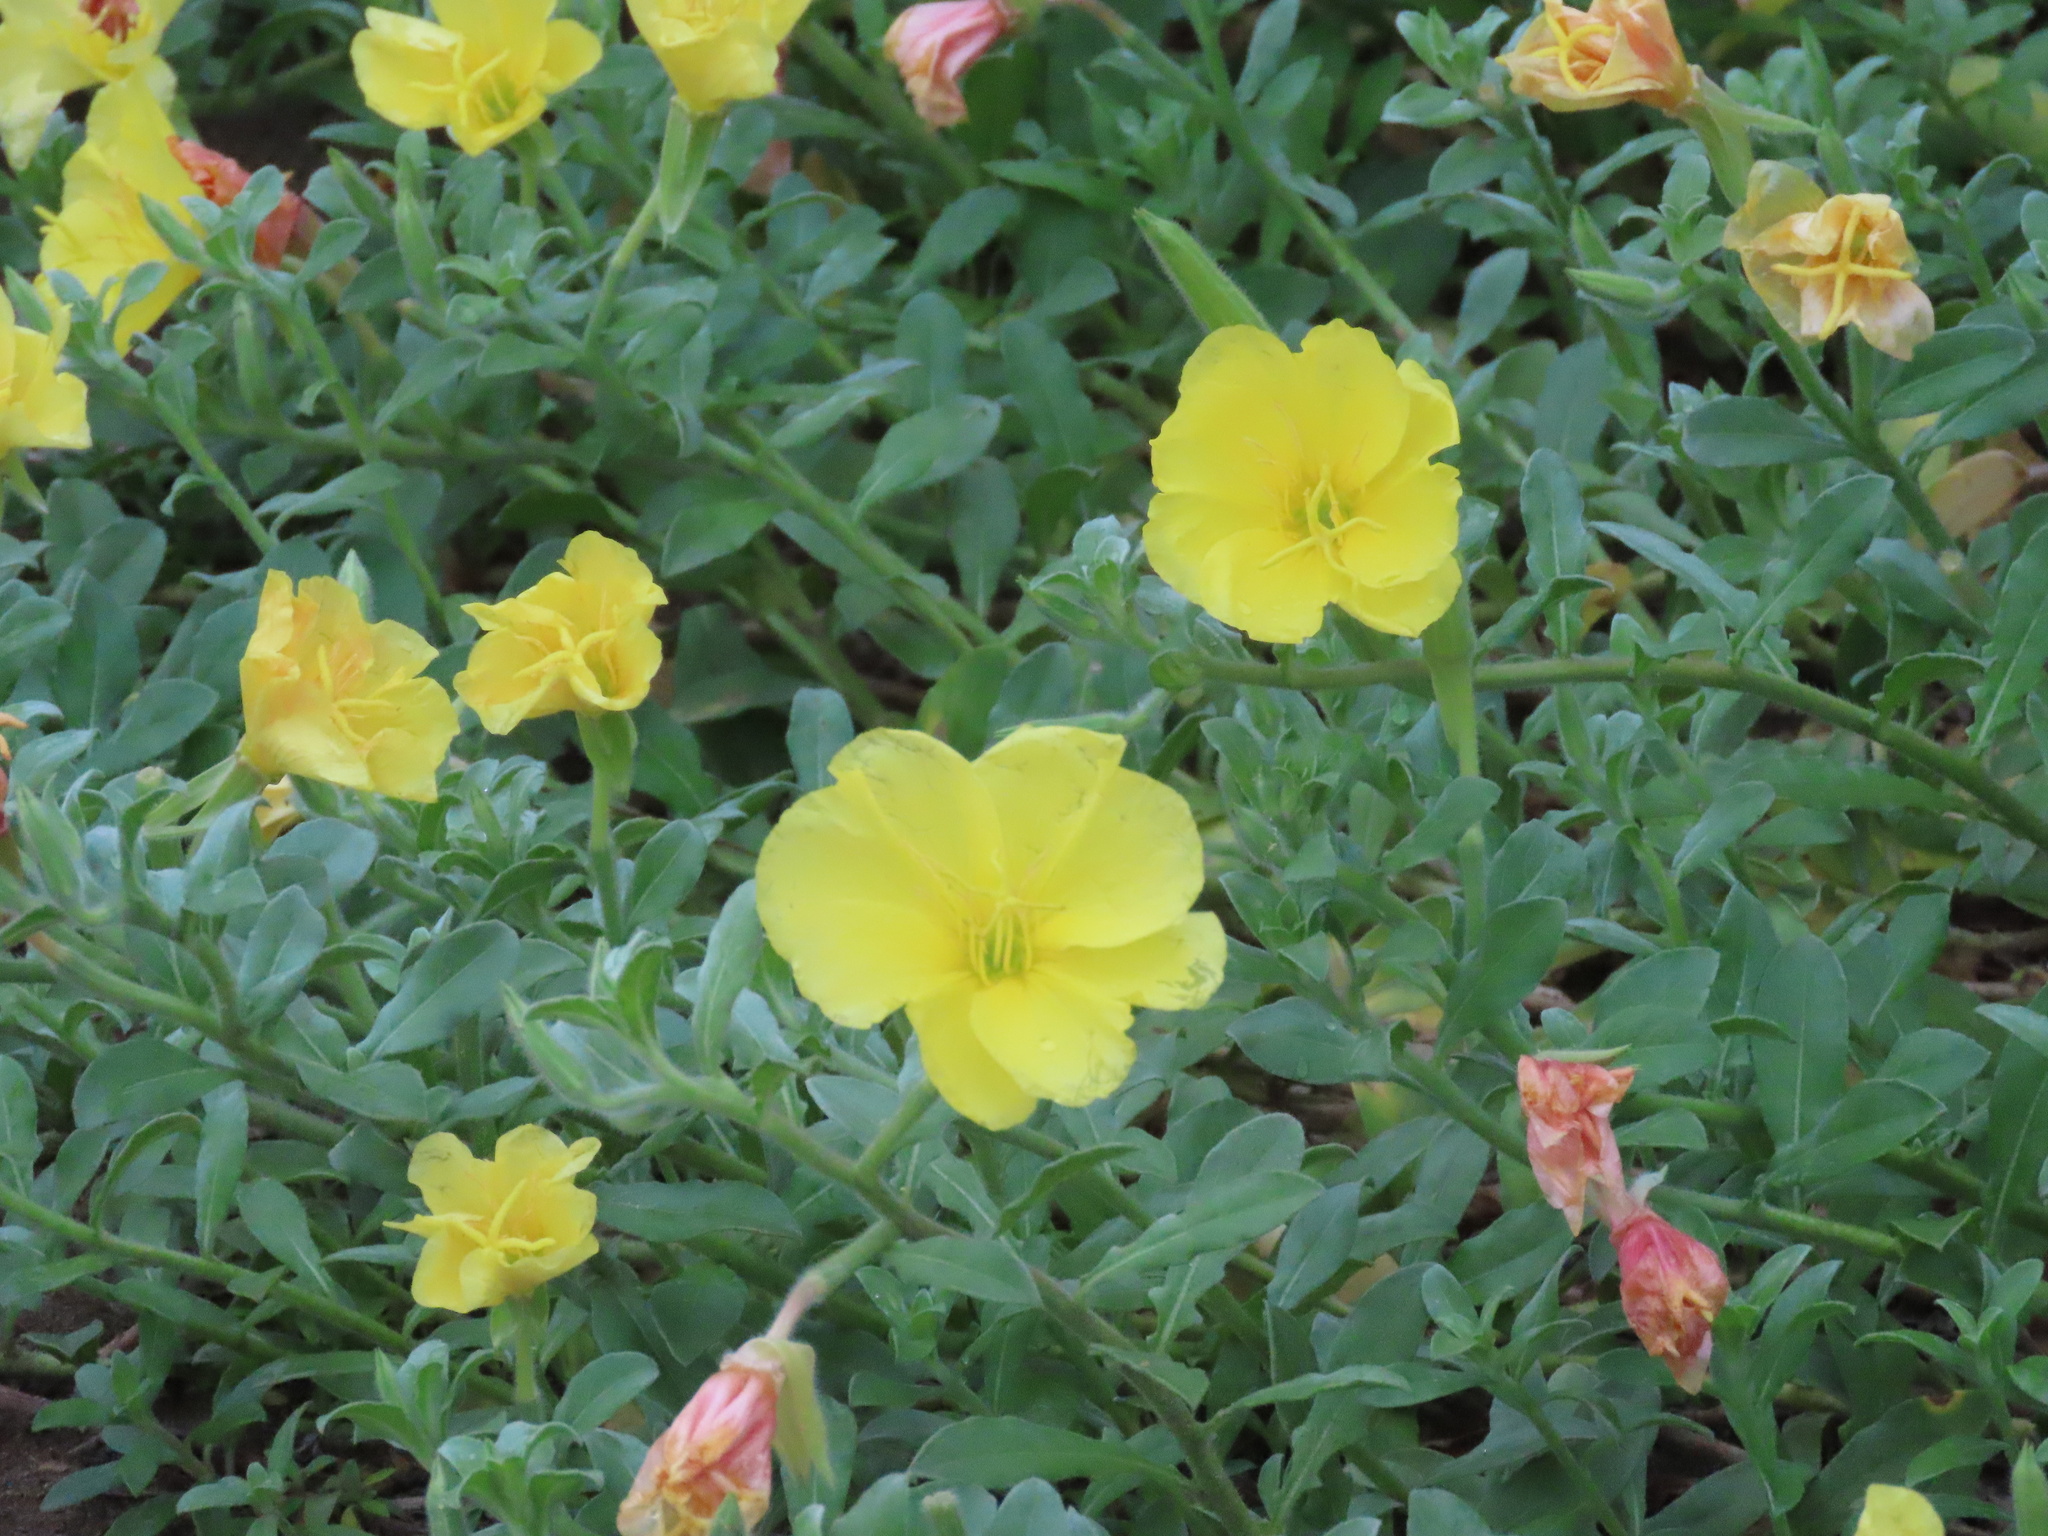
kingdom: Plantae
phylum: Tracheophyta
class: Magnoliopsida
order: Myrtales
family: Onagraceae
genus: Oenothera
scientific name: Oenothera drummondii
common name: Beach evening-primrose
